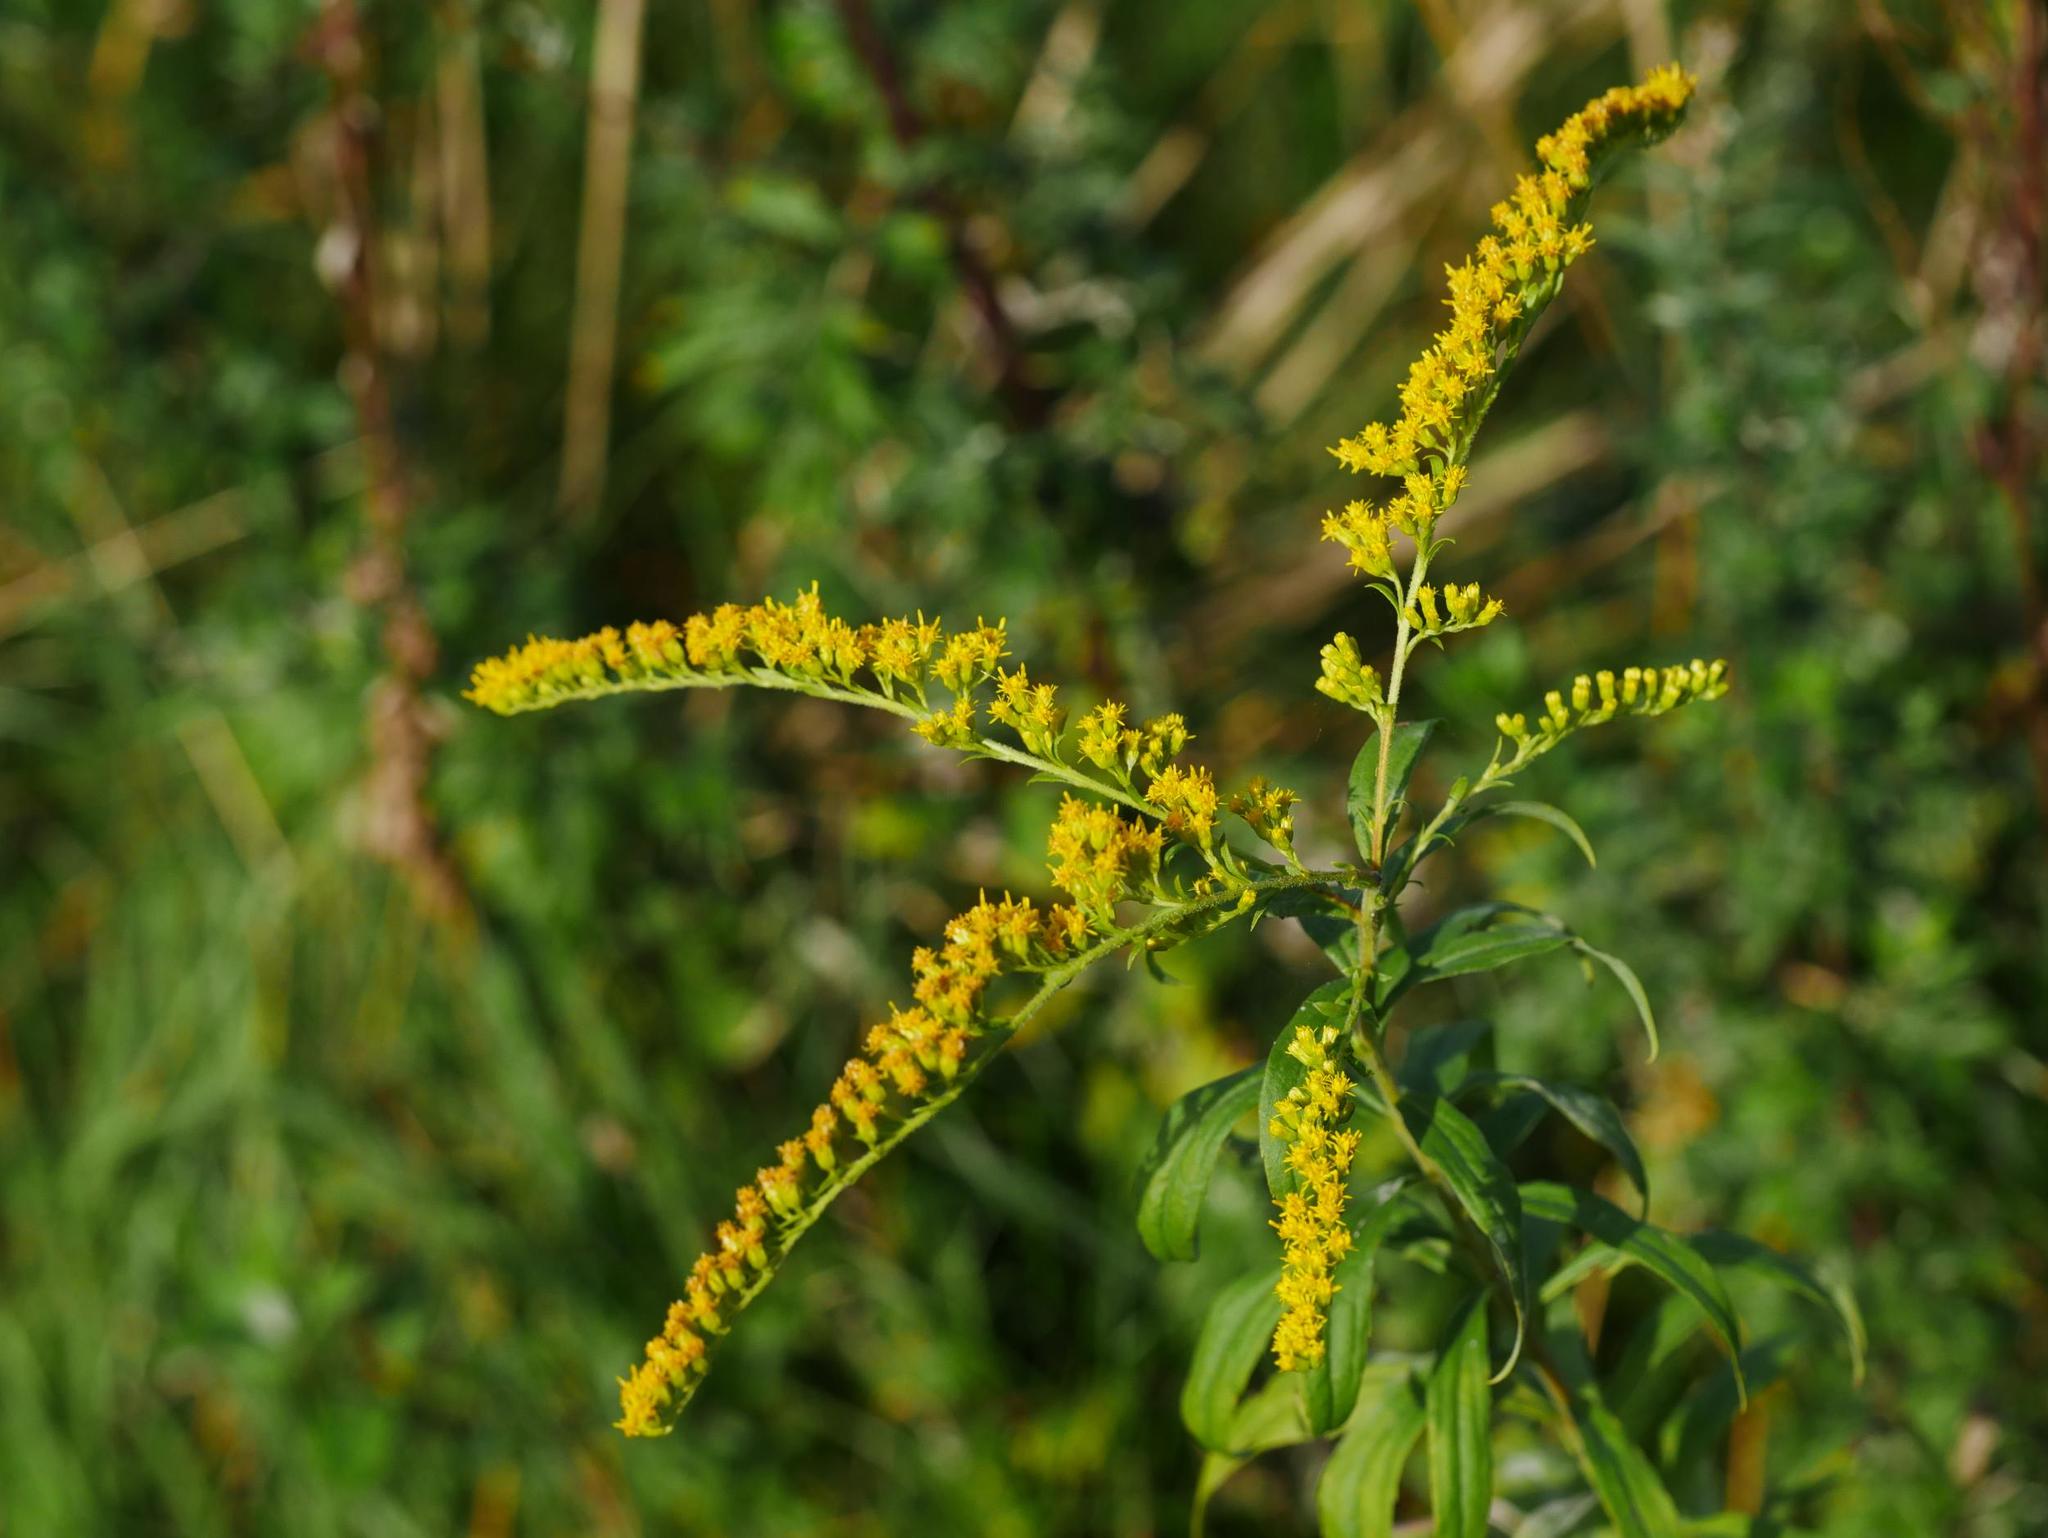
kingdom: Plantae
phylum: Tracheophyta
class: Magnoliopsida
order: Asterales
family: Asteraceae
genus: Solidago
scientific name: Solidago canadensis
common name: Canada goldenrod
